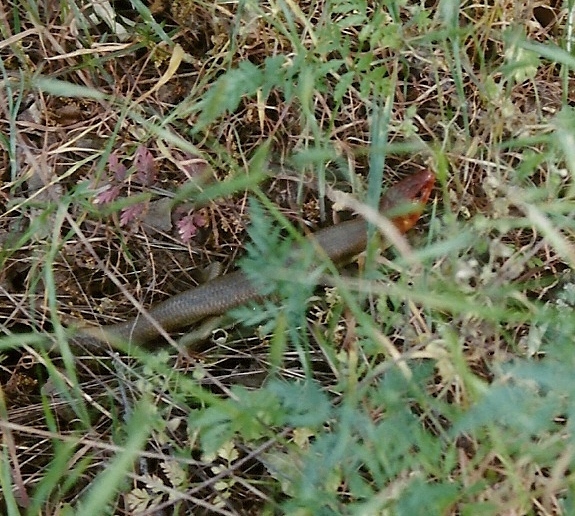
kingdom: Animalia
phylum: Chordata
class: Squamata
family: Scincidae
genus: Plestiodon
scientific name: Plestiodon gilberti
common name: Gilbert's skink
